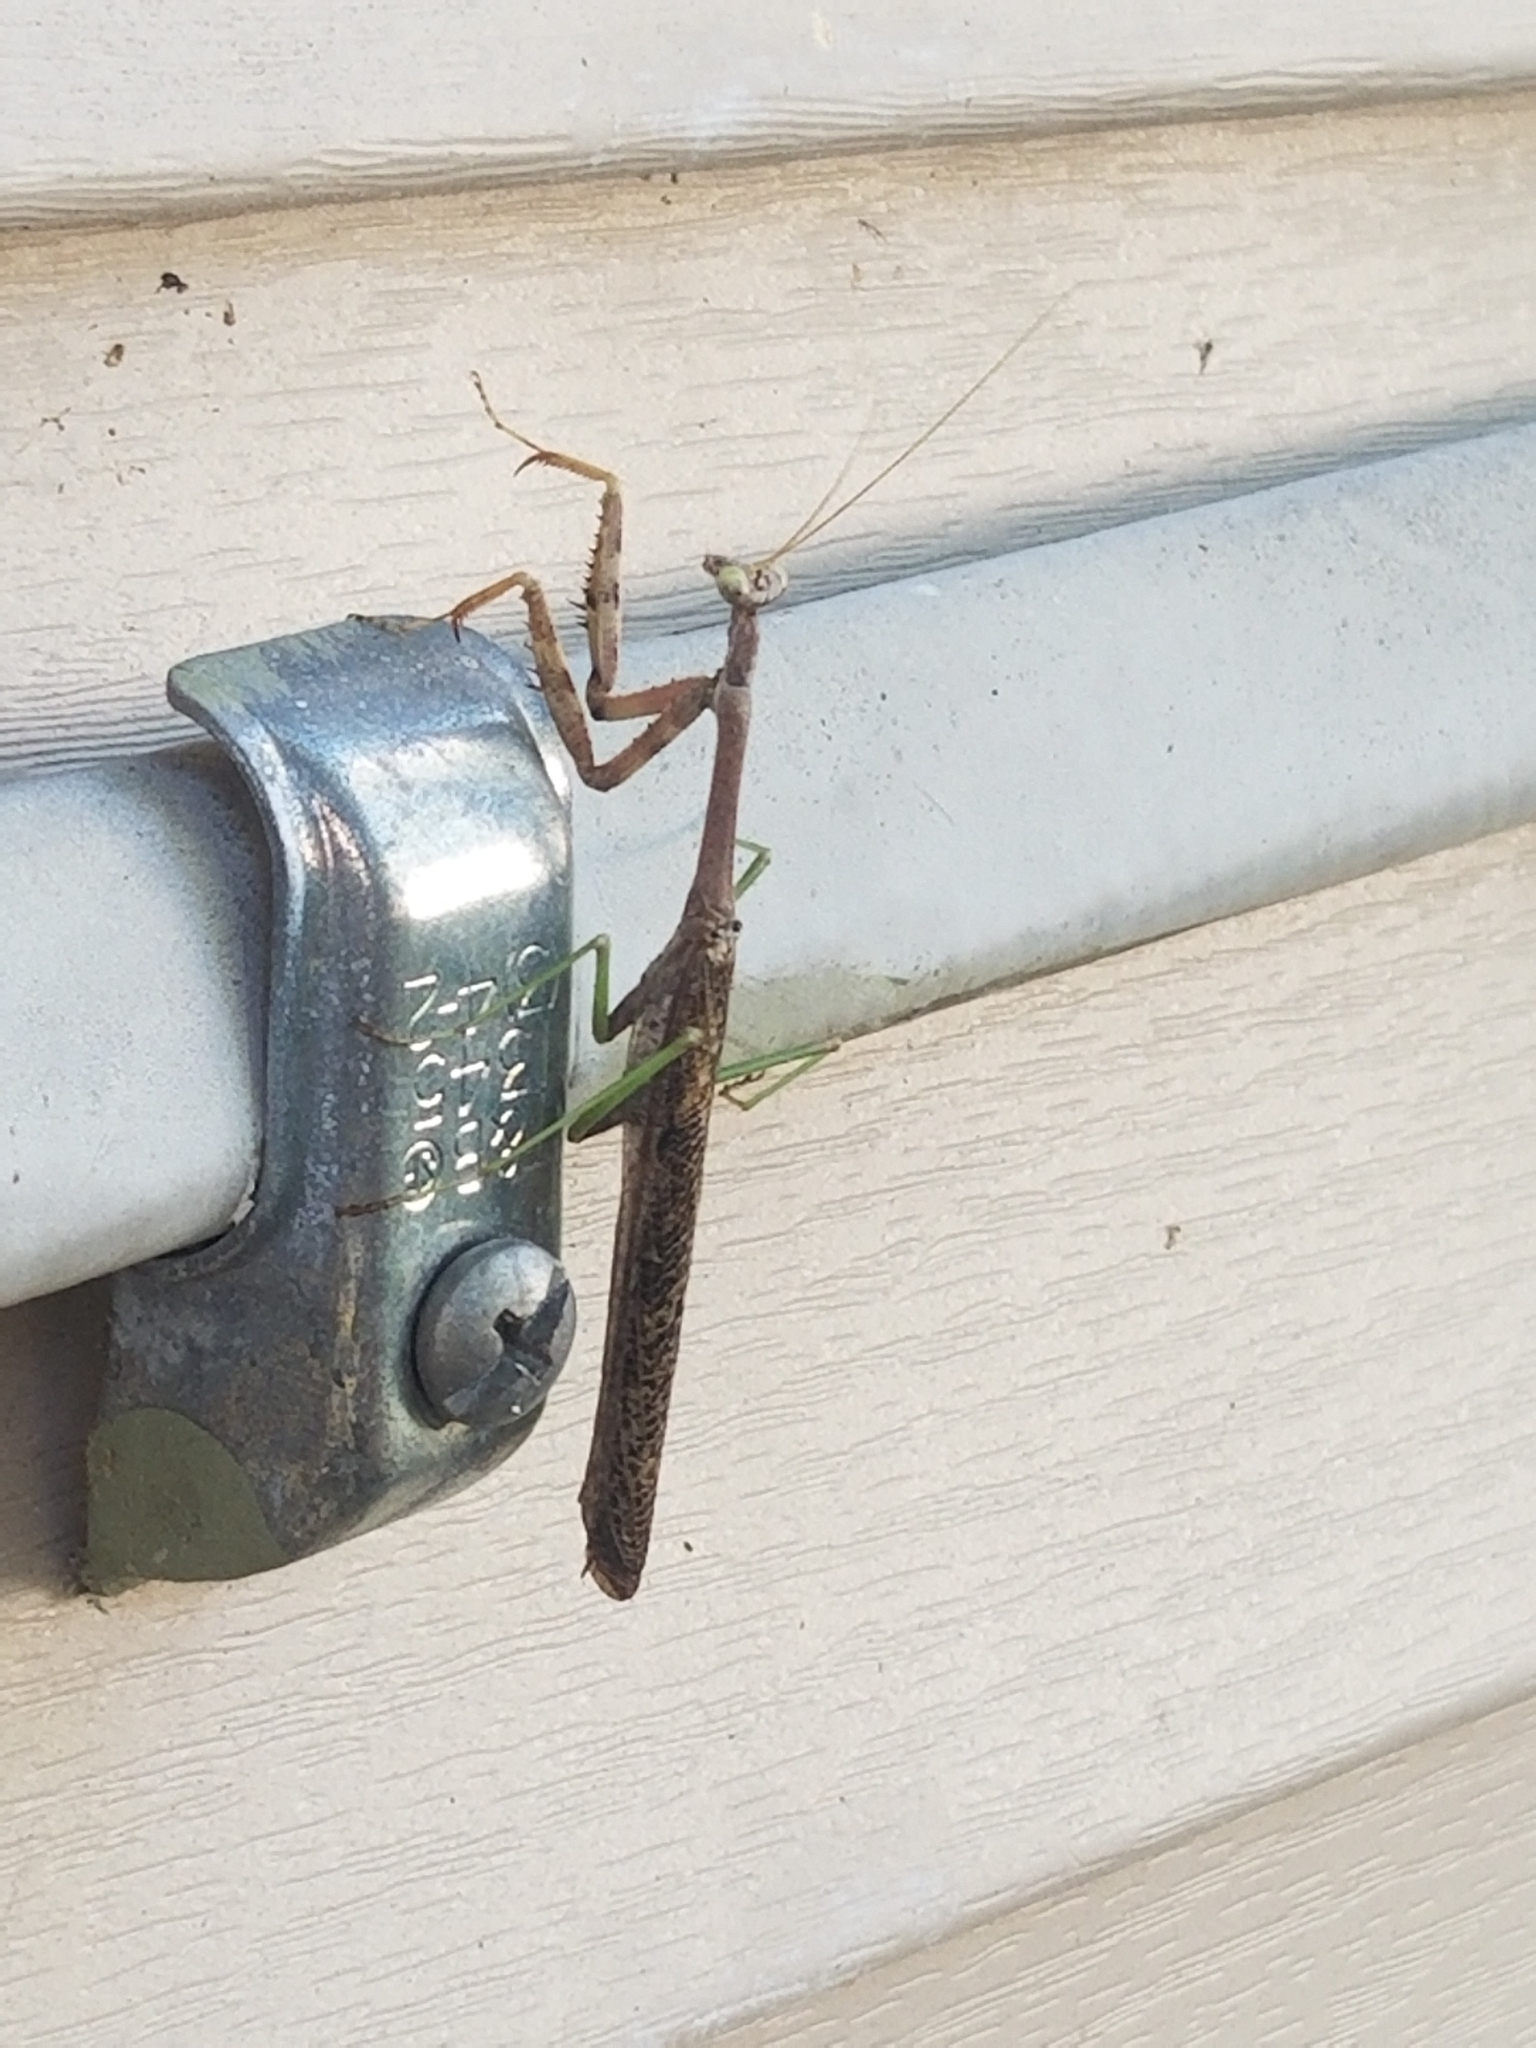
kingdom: Animalia
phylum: Arthropoda
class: Insecta
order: Mantodea
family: Mantidae
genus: Stagmomantis
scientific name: Stagmomantis carolina
